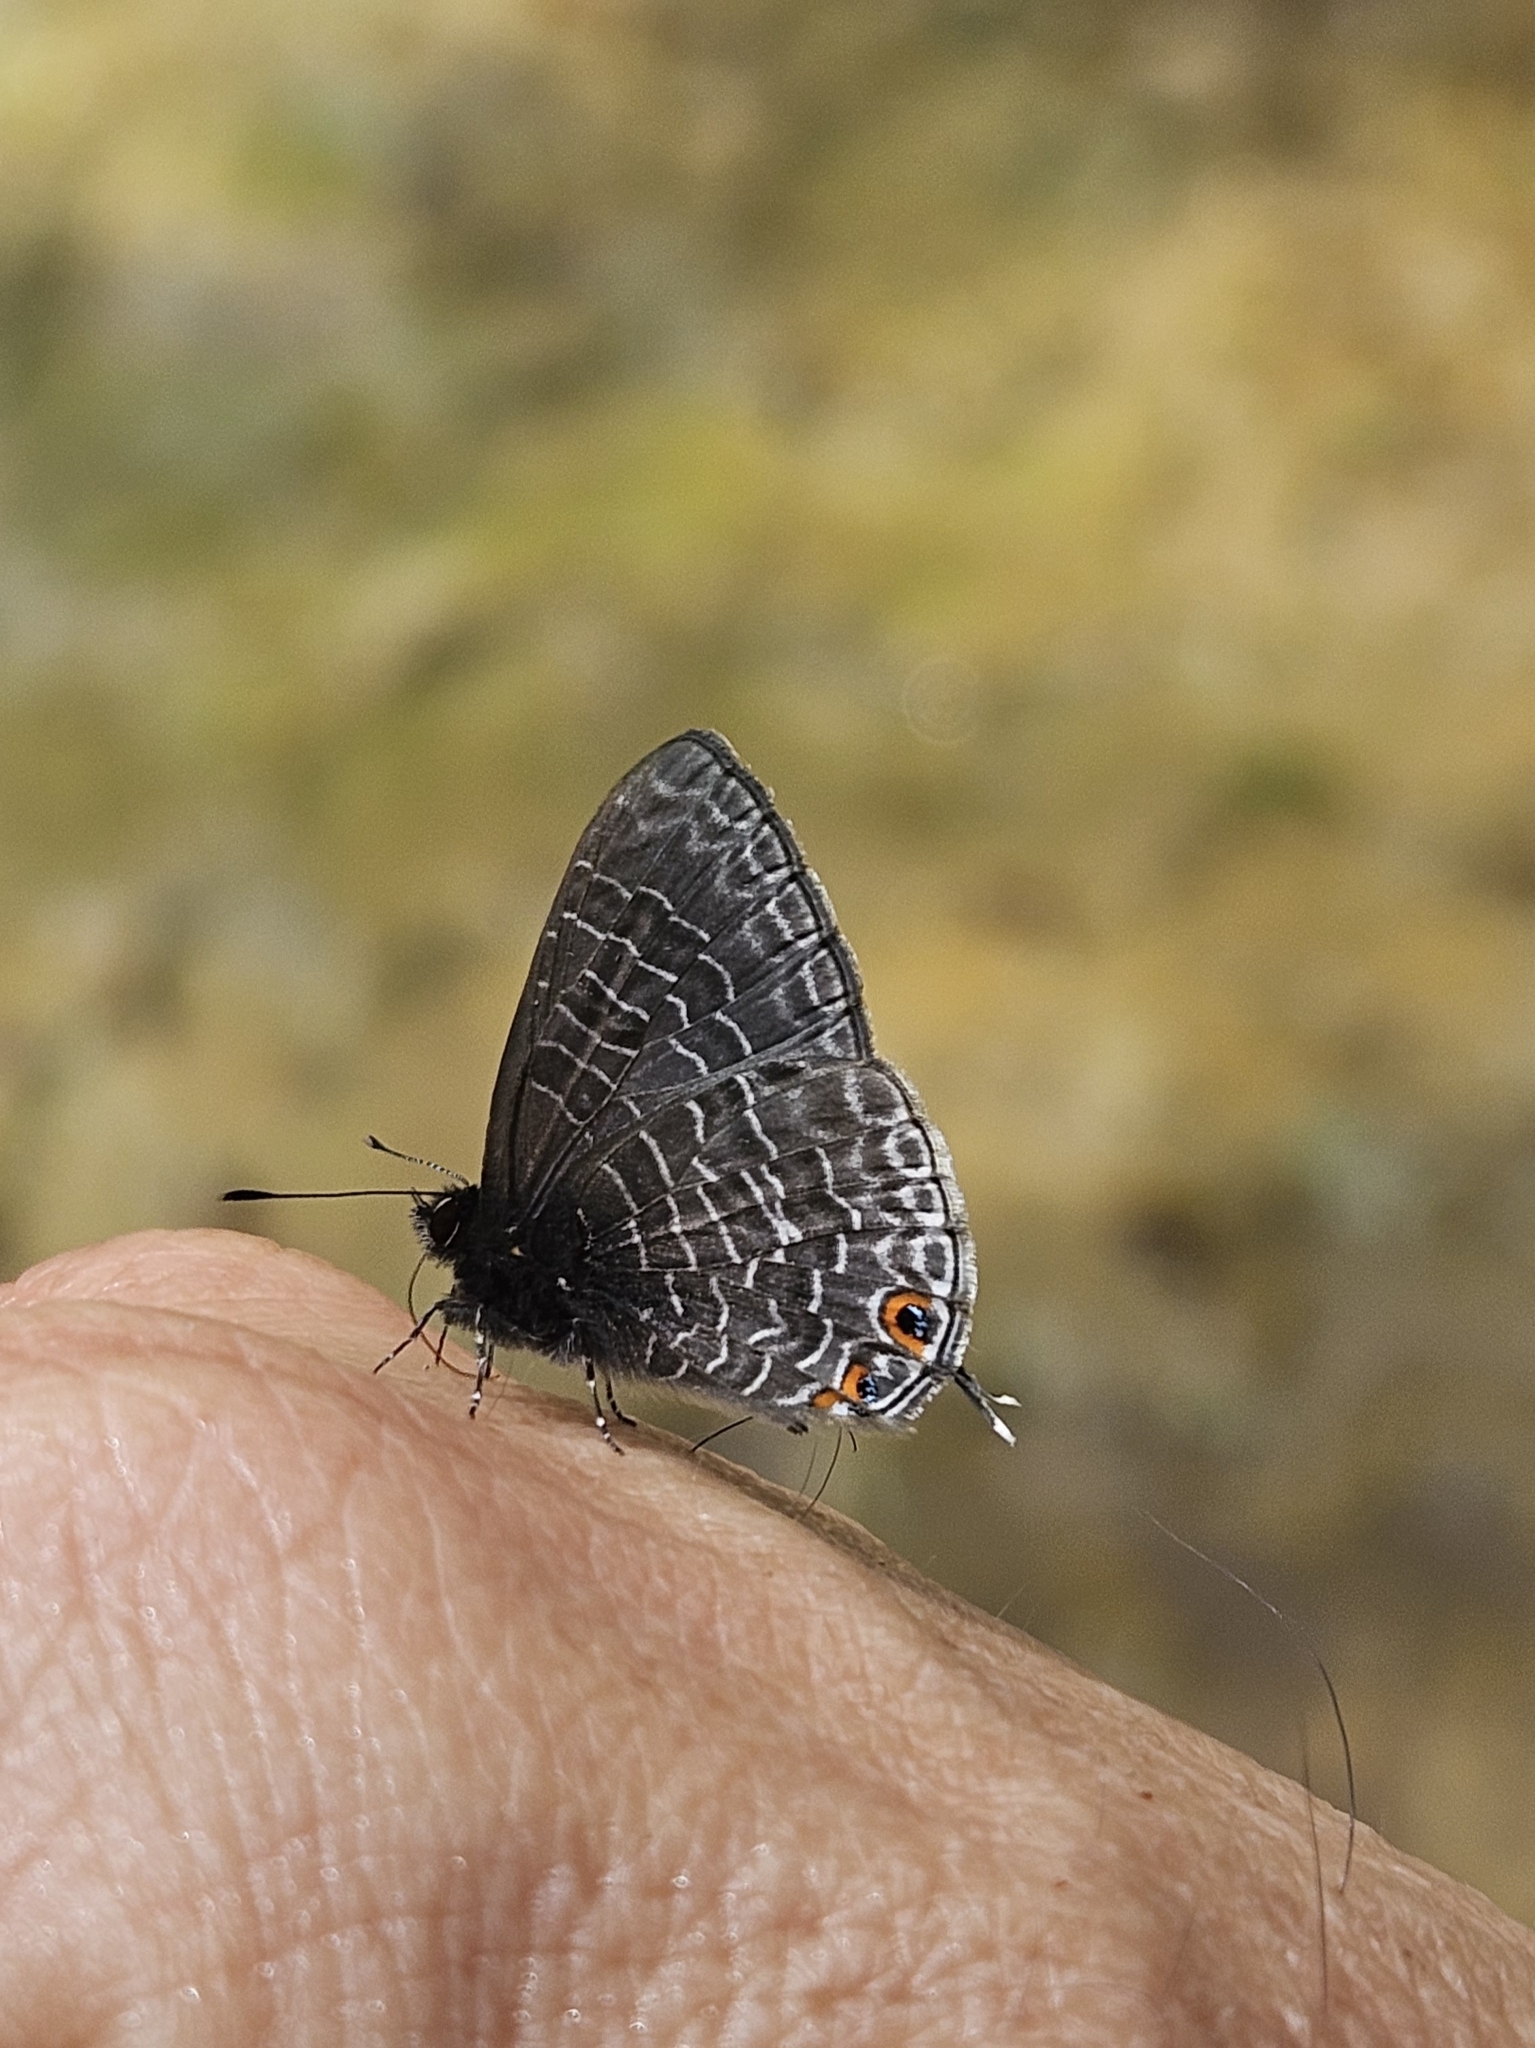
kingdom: Animalia
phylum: Arthropoda
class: Insecta
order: Lepidoptera
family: Lycaenidae
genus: Erysichton
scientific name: Erysichton lineata
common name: Hairy line blue
